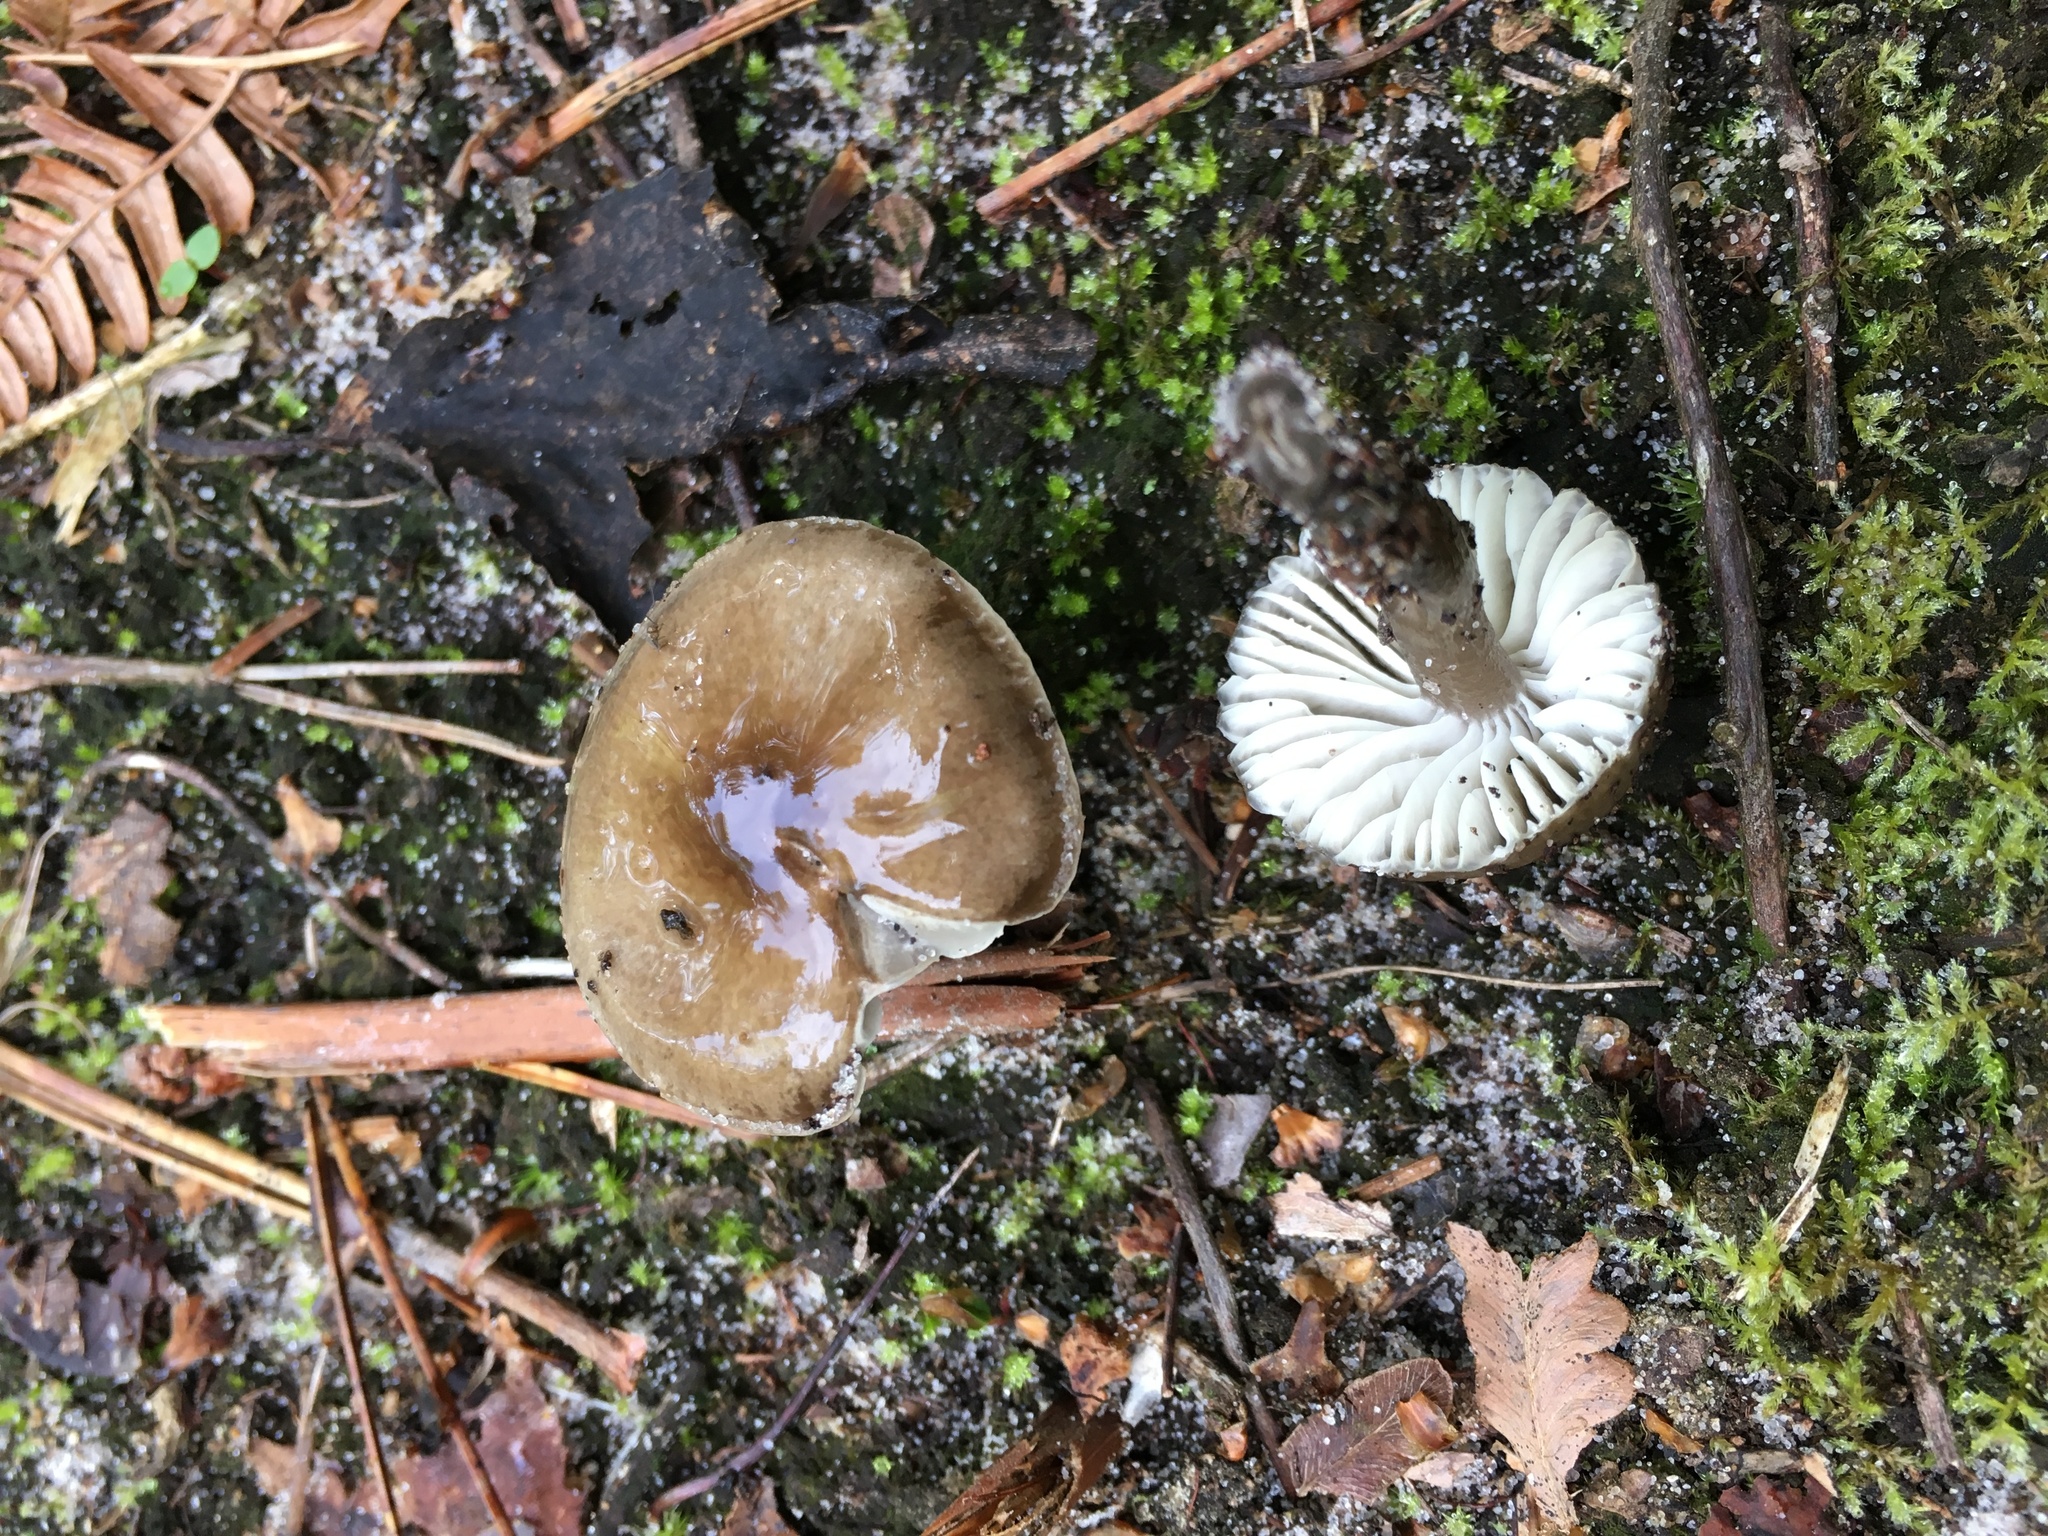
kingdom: Fungi
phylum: Basidiomycota
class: Agaricomycetes
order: Agaricales
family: Hygrophoraceae
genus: Gliophorus
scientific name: Gliophorus irrigatus
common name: Slimy waxcap
